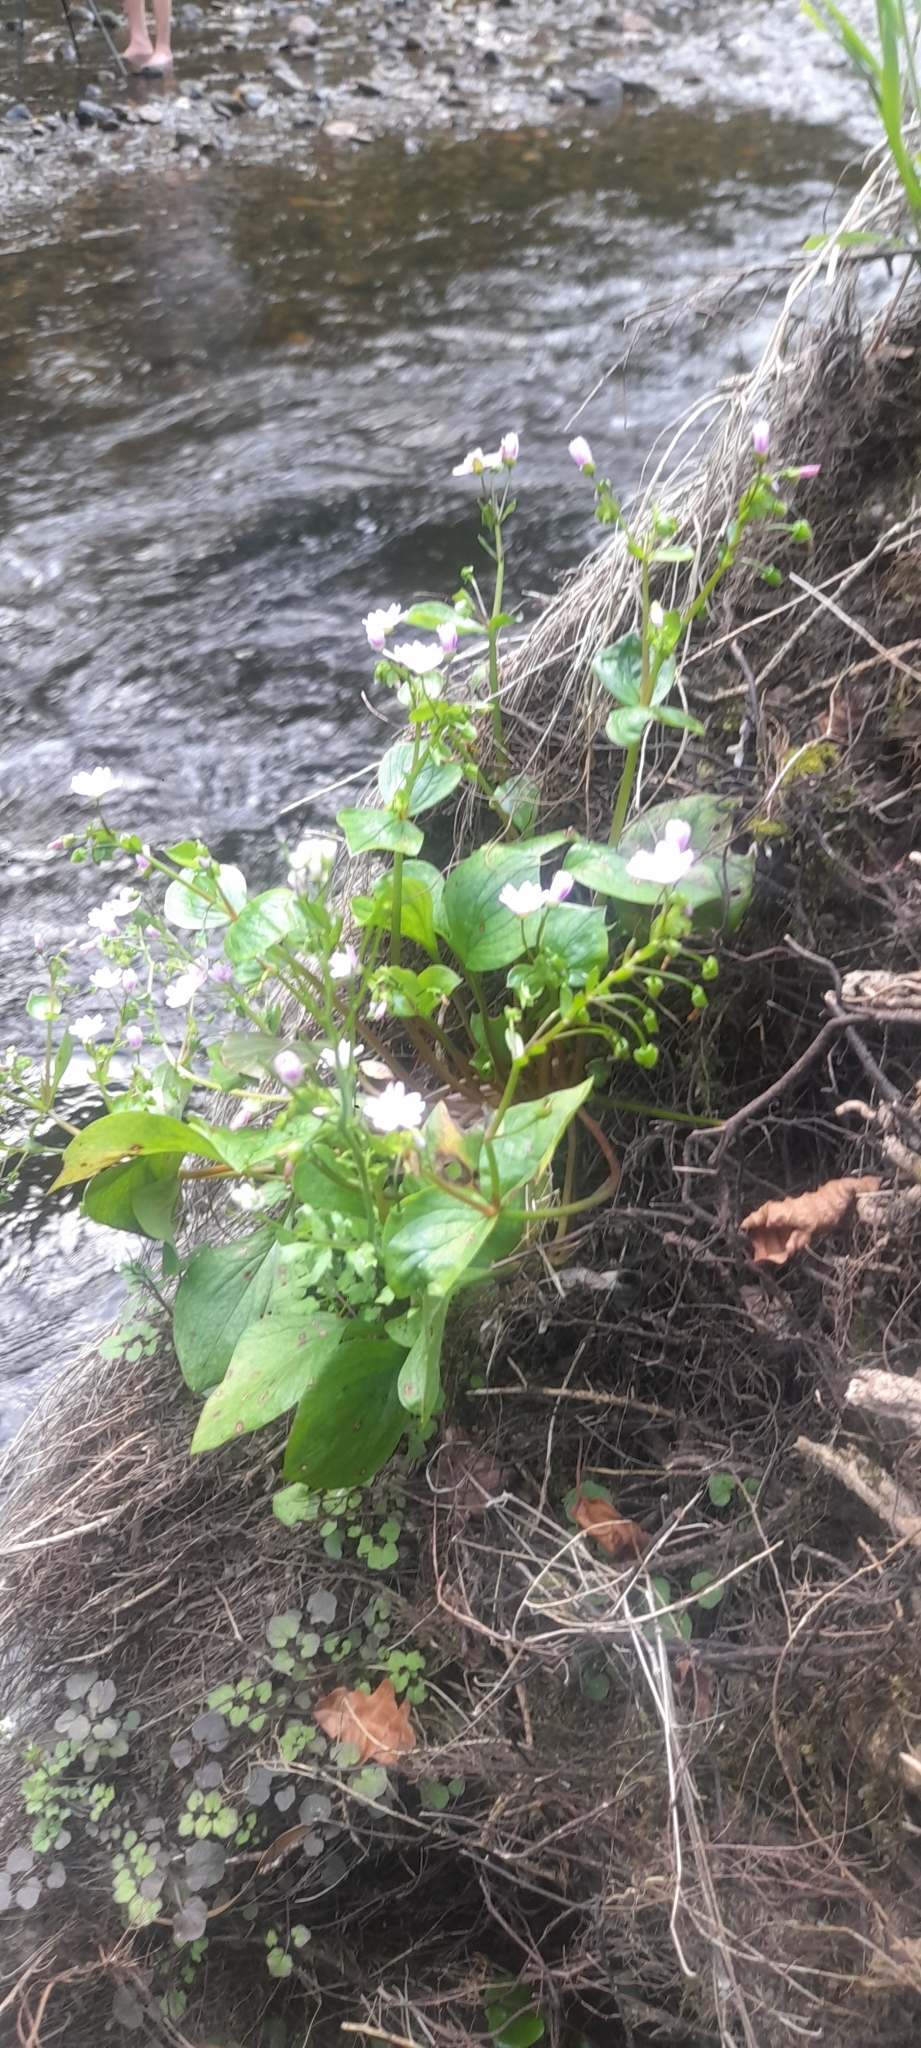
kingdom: Plantae
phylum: Tracheophyta
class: Magnoliopsida
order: Caryophyllales
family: Montiaceae
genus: Claytonia
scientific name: Claytonia sibirica
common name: Pink purslane
